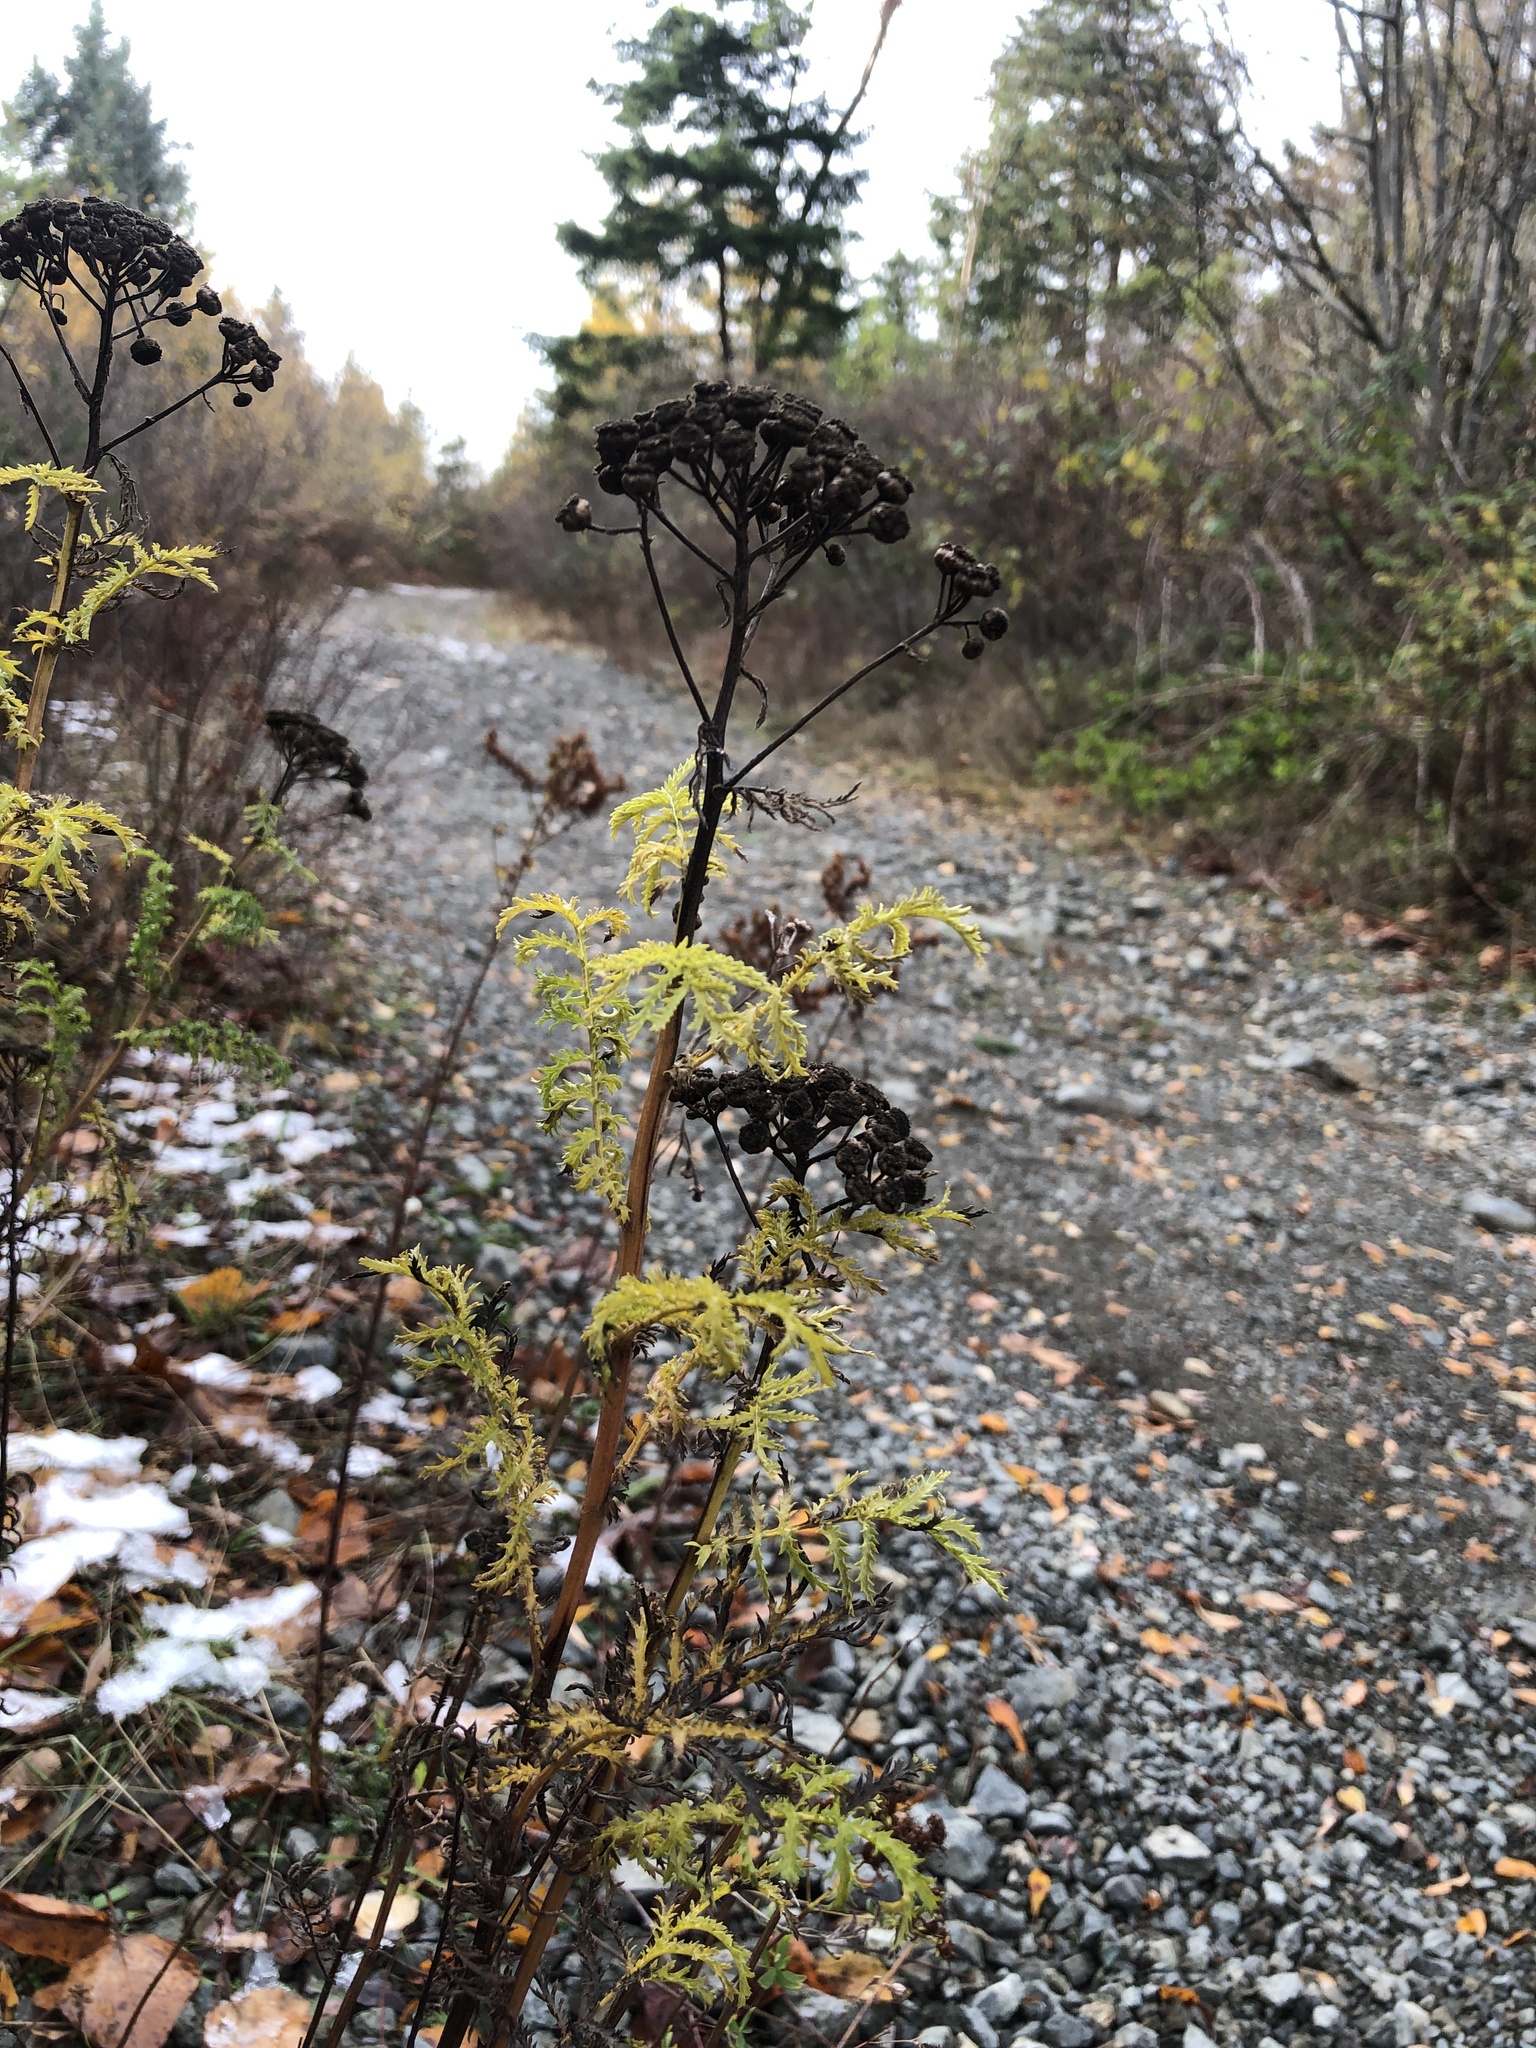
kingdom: Plantae
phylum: Tracheophyta
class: Magnoliopsida
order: Asterales
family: Asteraceae
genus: Tanacetum
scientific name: Tanacetum vulgare
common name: Common tansy
